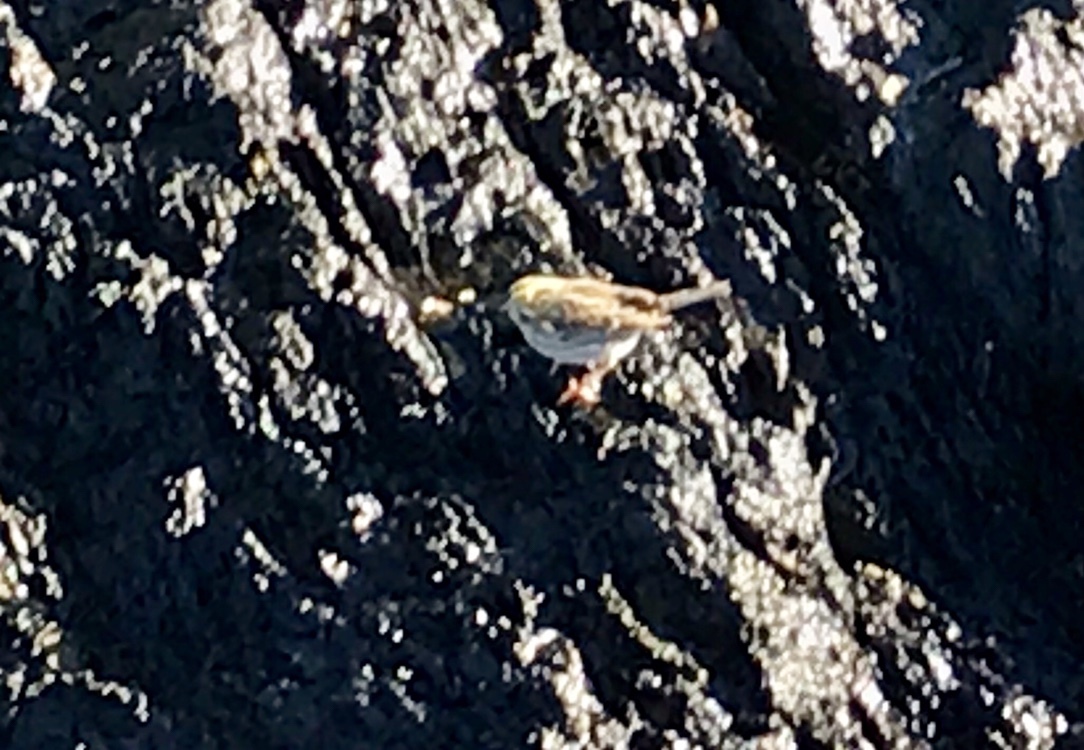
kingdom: Animalia
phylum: Chordata
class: Aves
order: Passeriformes
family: Passerellidae
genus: Passerculus
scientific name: Passerculus sandwichensis
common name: Savannah sparrow
